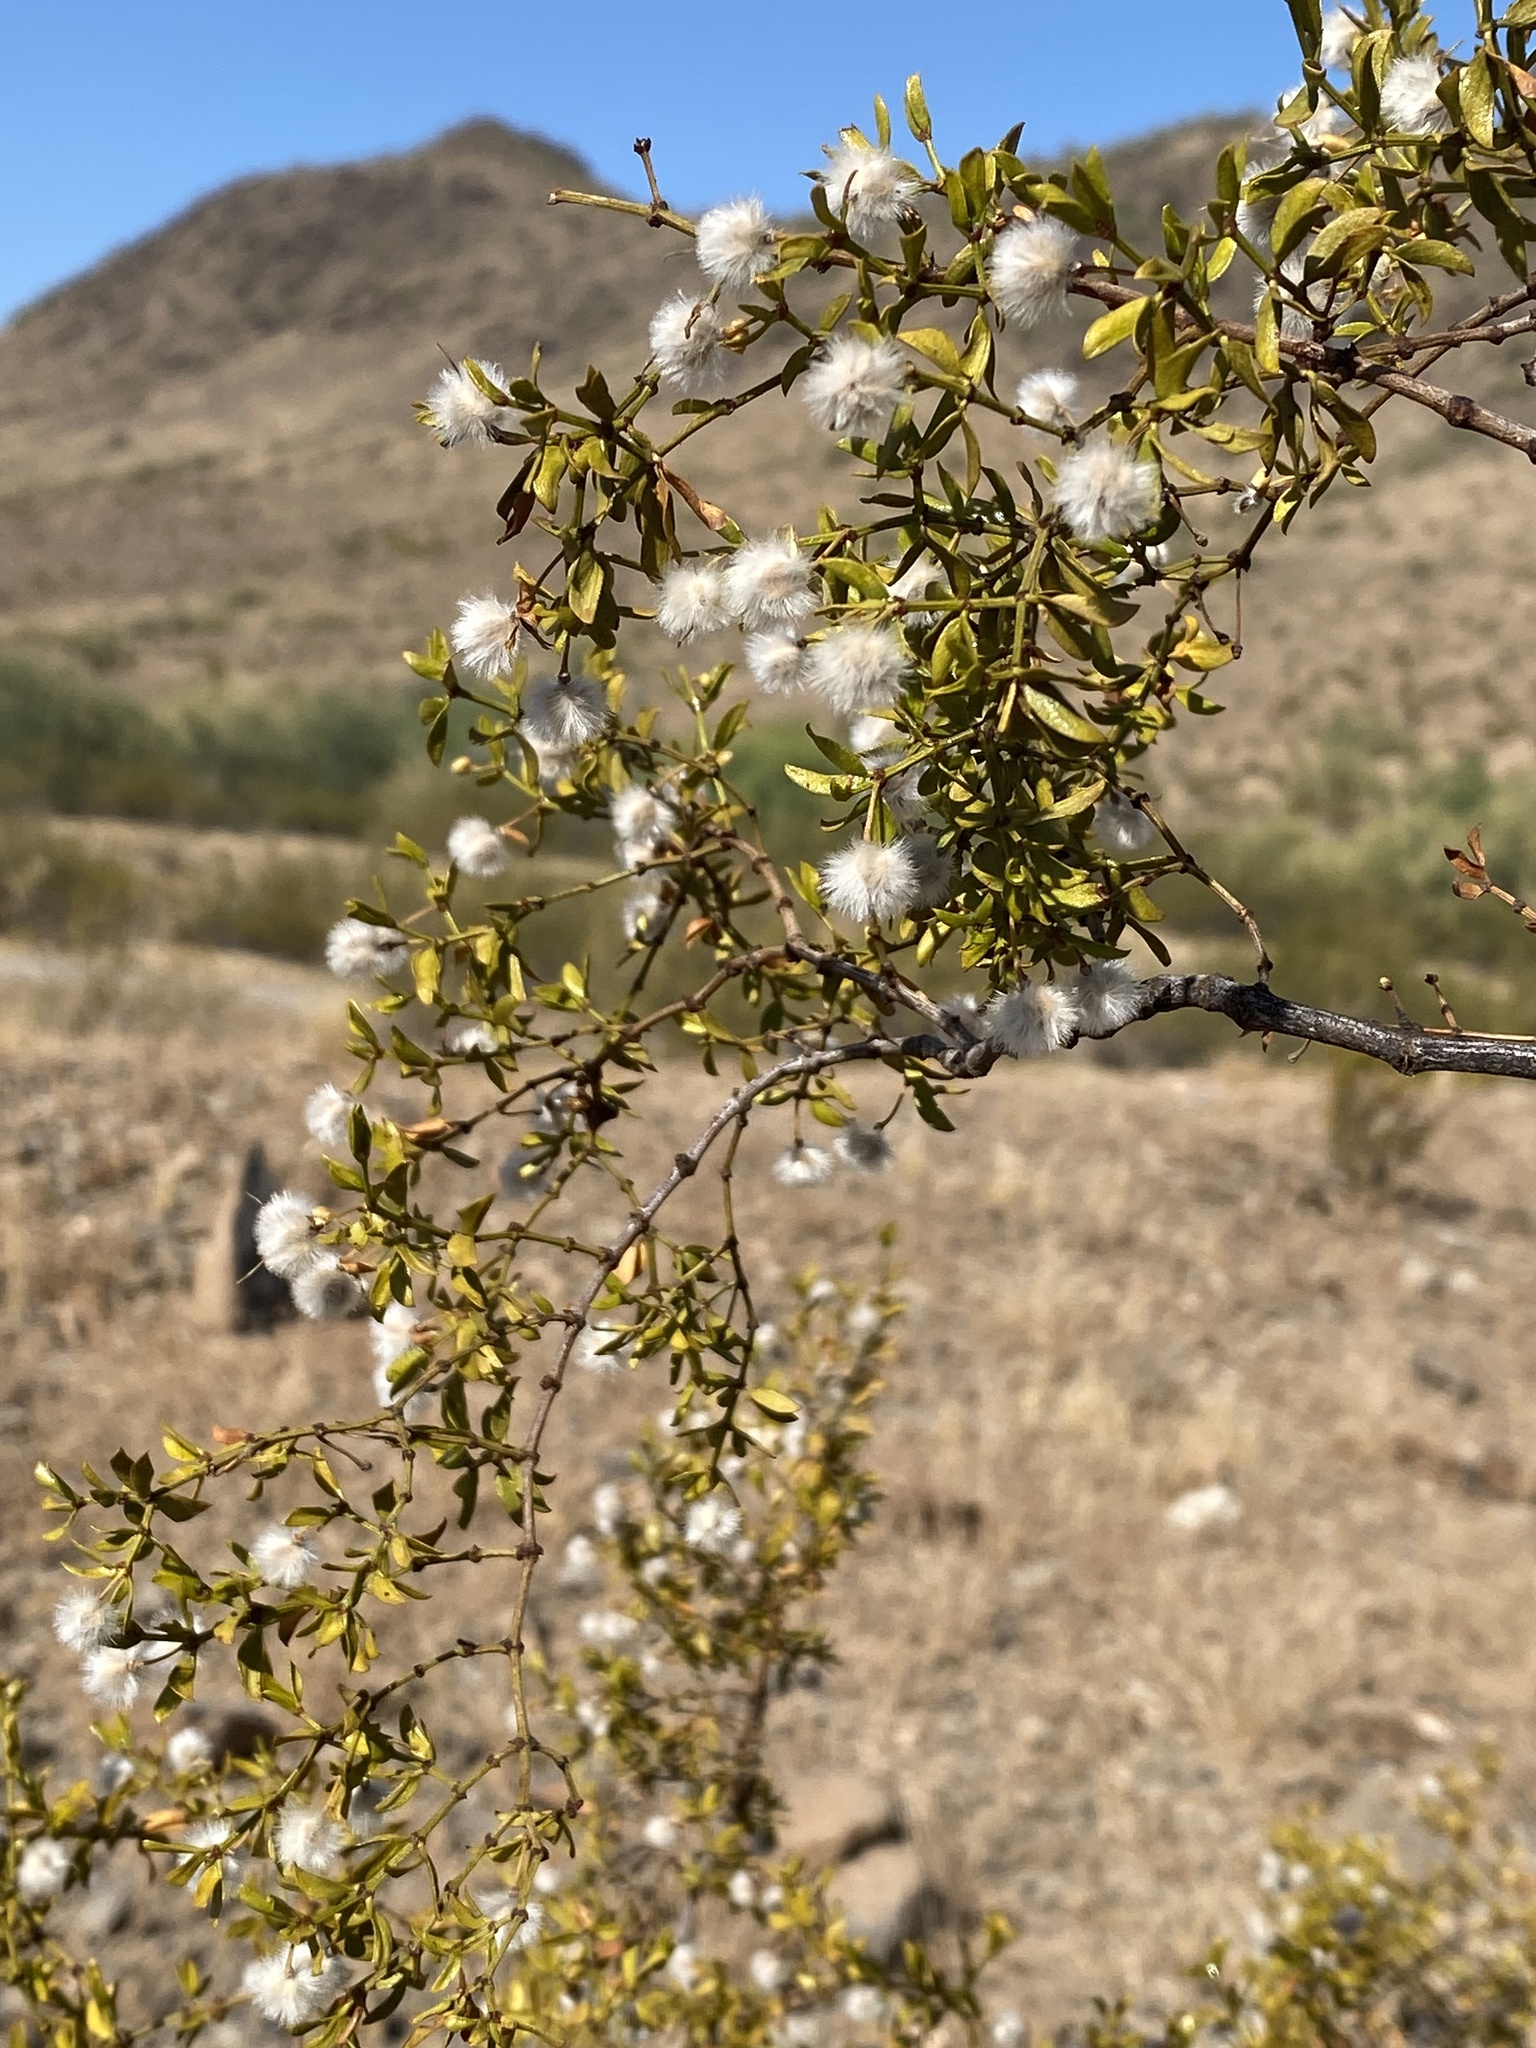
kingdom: Plantae
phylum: Tracheophyta
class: Magnoliopsida
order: Zygophyllales
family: Zygophyllaceae
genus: Larrea
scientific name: Larrea tridentata
